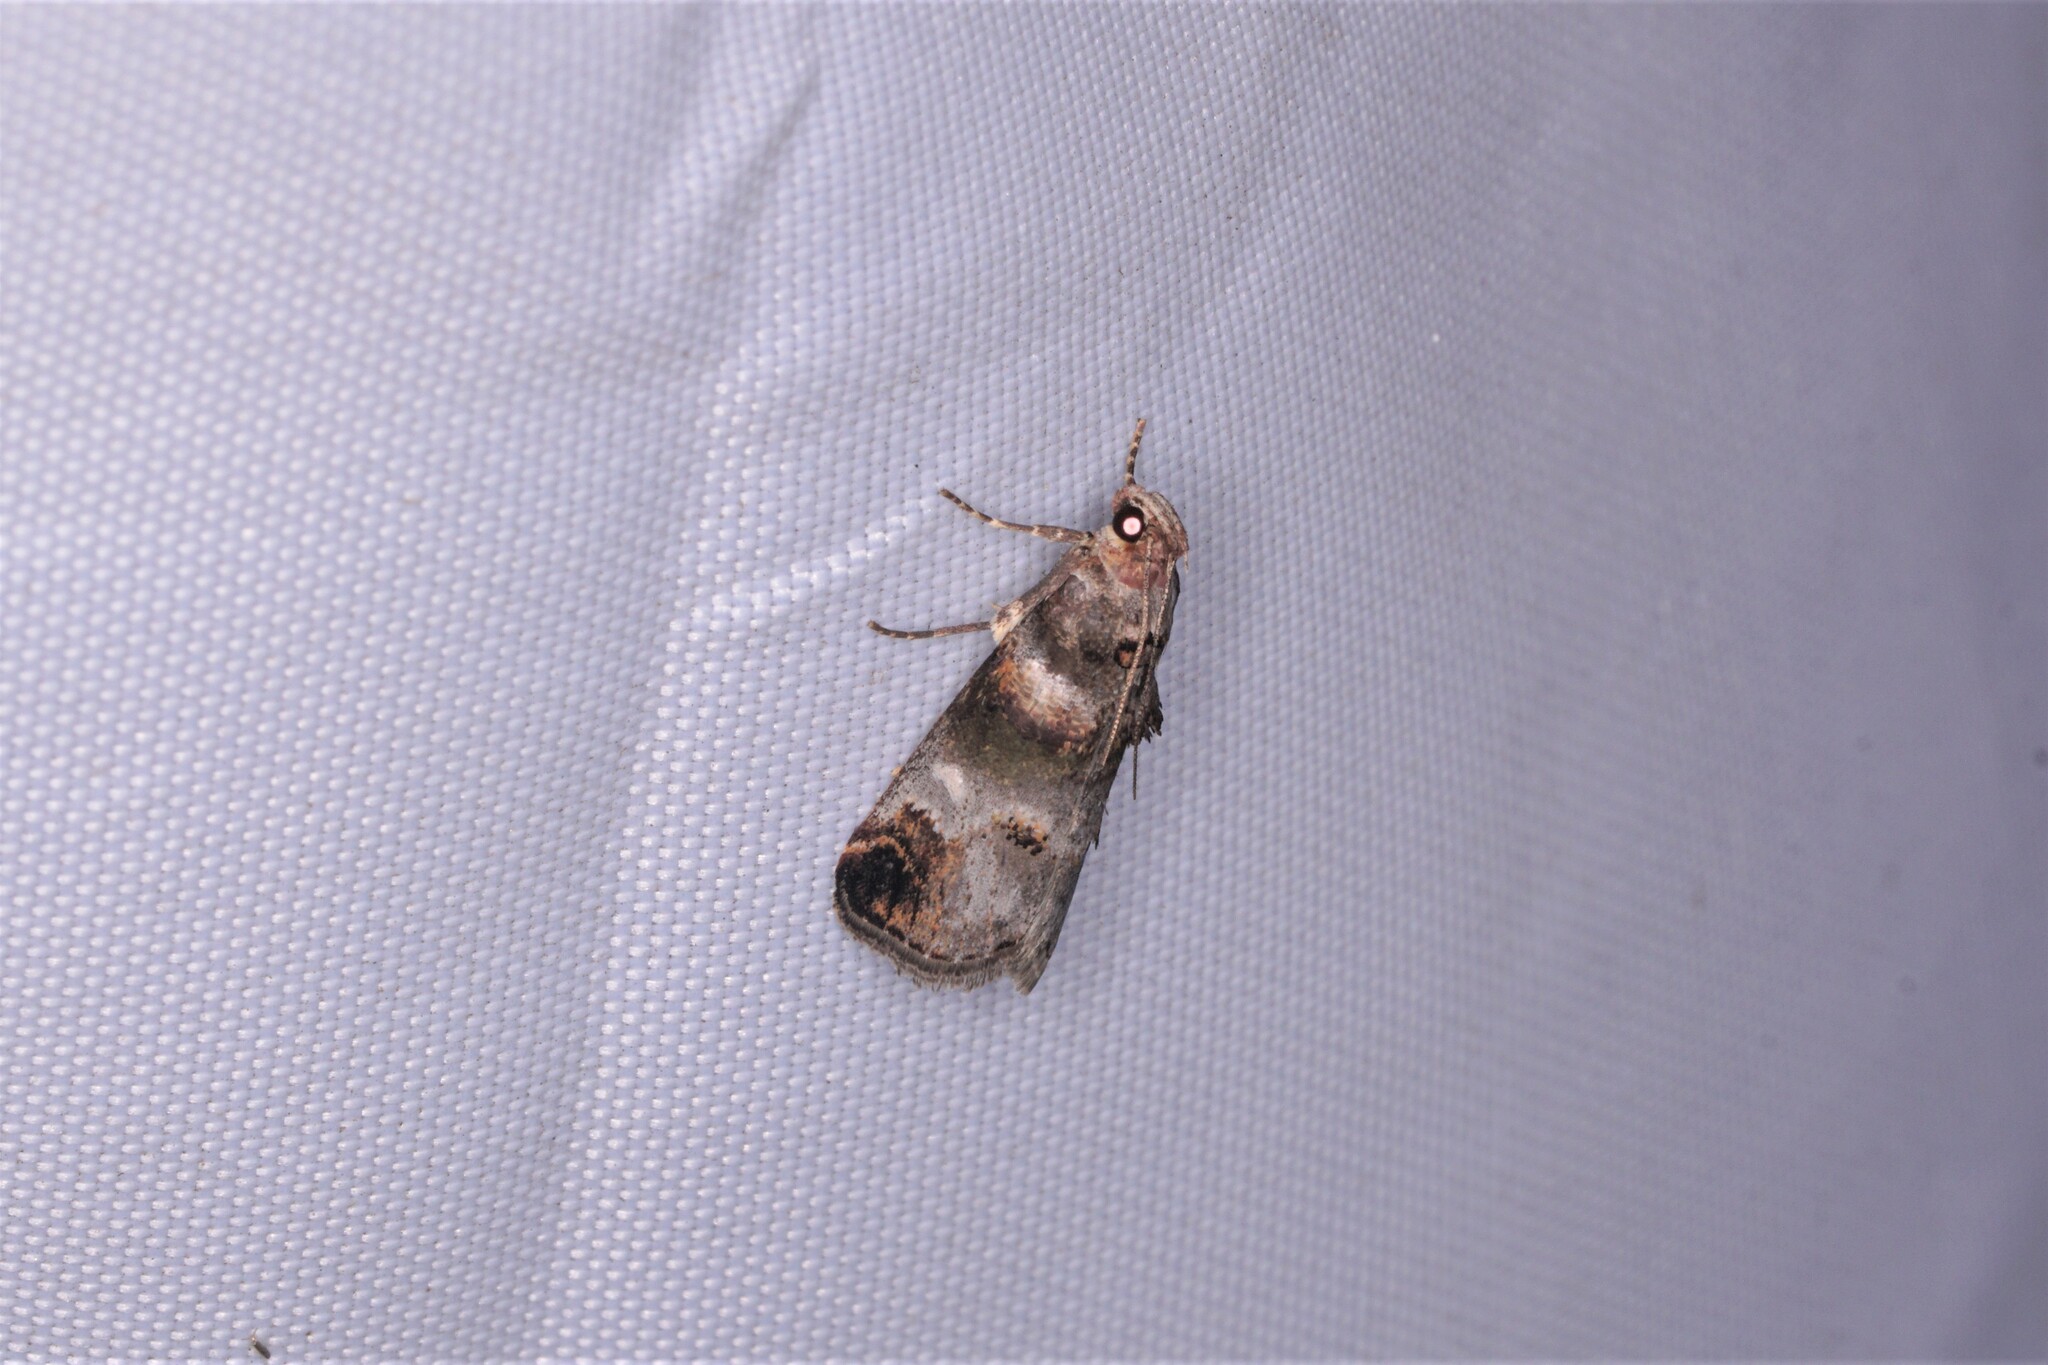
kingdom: Animalia
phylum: Arthropoda
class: Insecta
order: Lepidoptera
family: Pyralidae
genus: Oneida
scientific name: Oneida lunulalis
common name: Orange-tufted oneida moth
